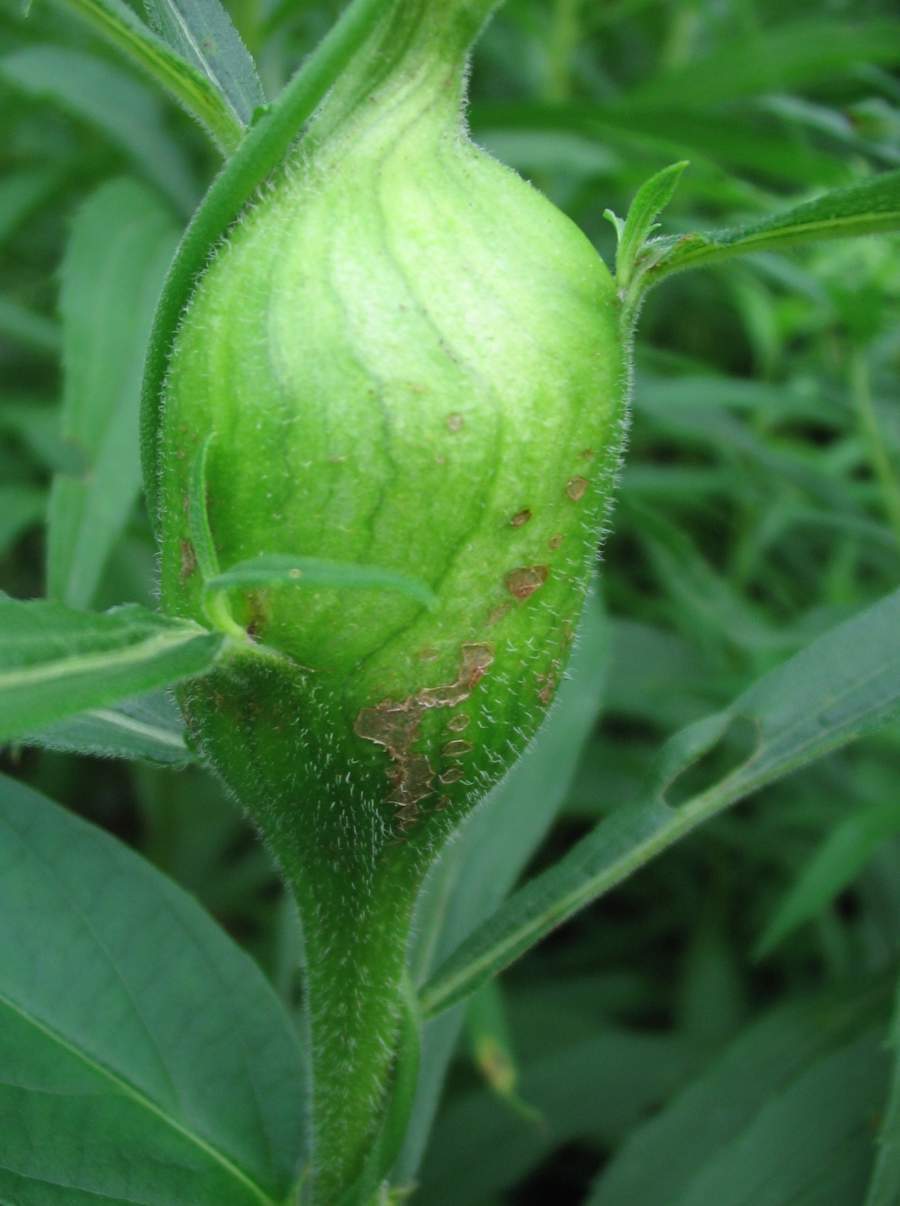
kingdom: Animalia
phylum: Arthropoda
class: Insecta
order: Diptera
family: Tephritidae
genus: Eurosta
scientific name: Eurosta solidaginis
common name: Goldenrod gall fly
